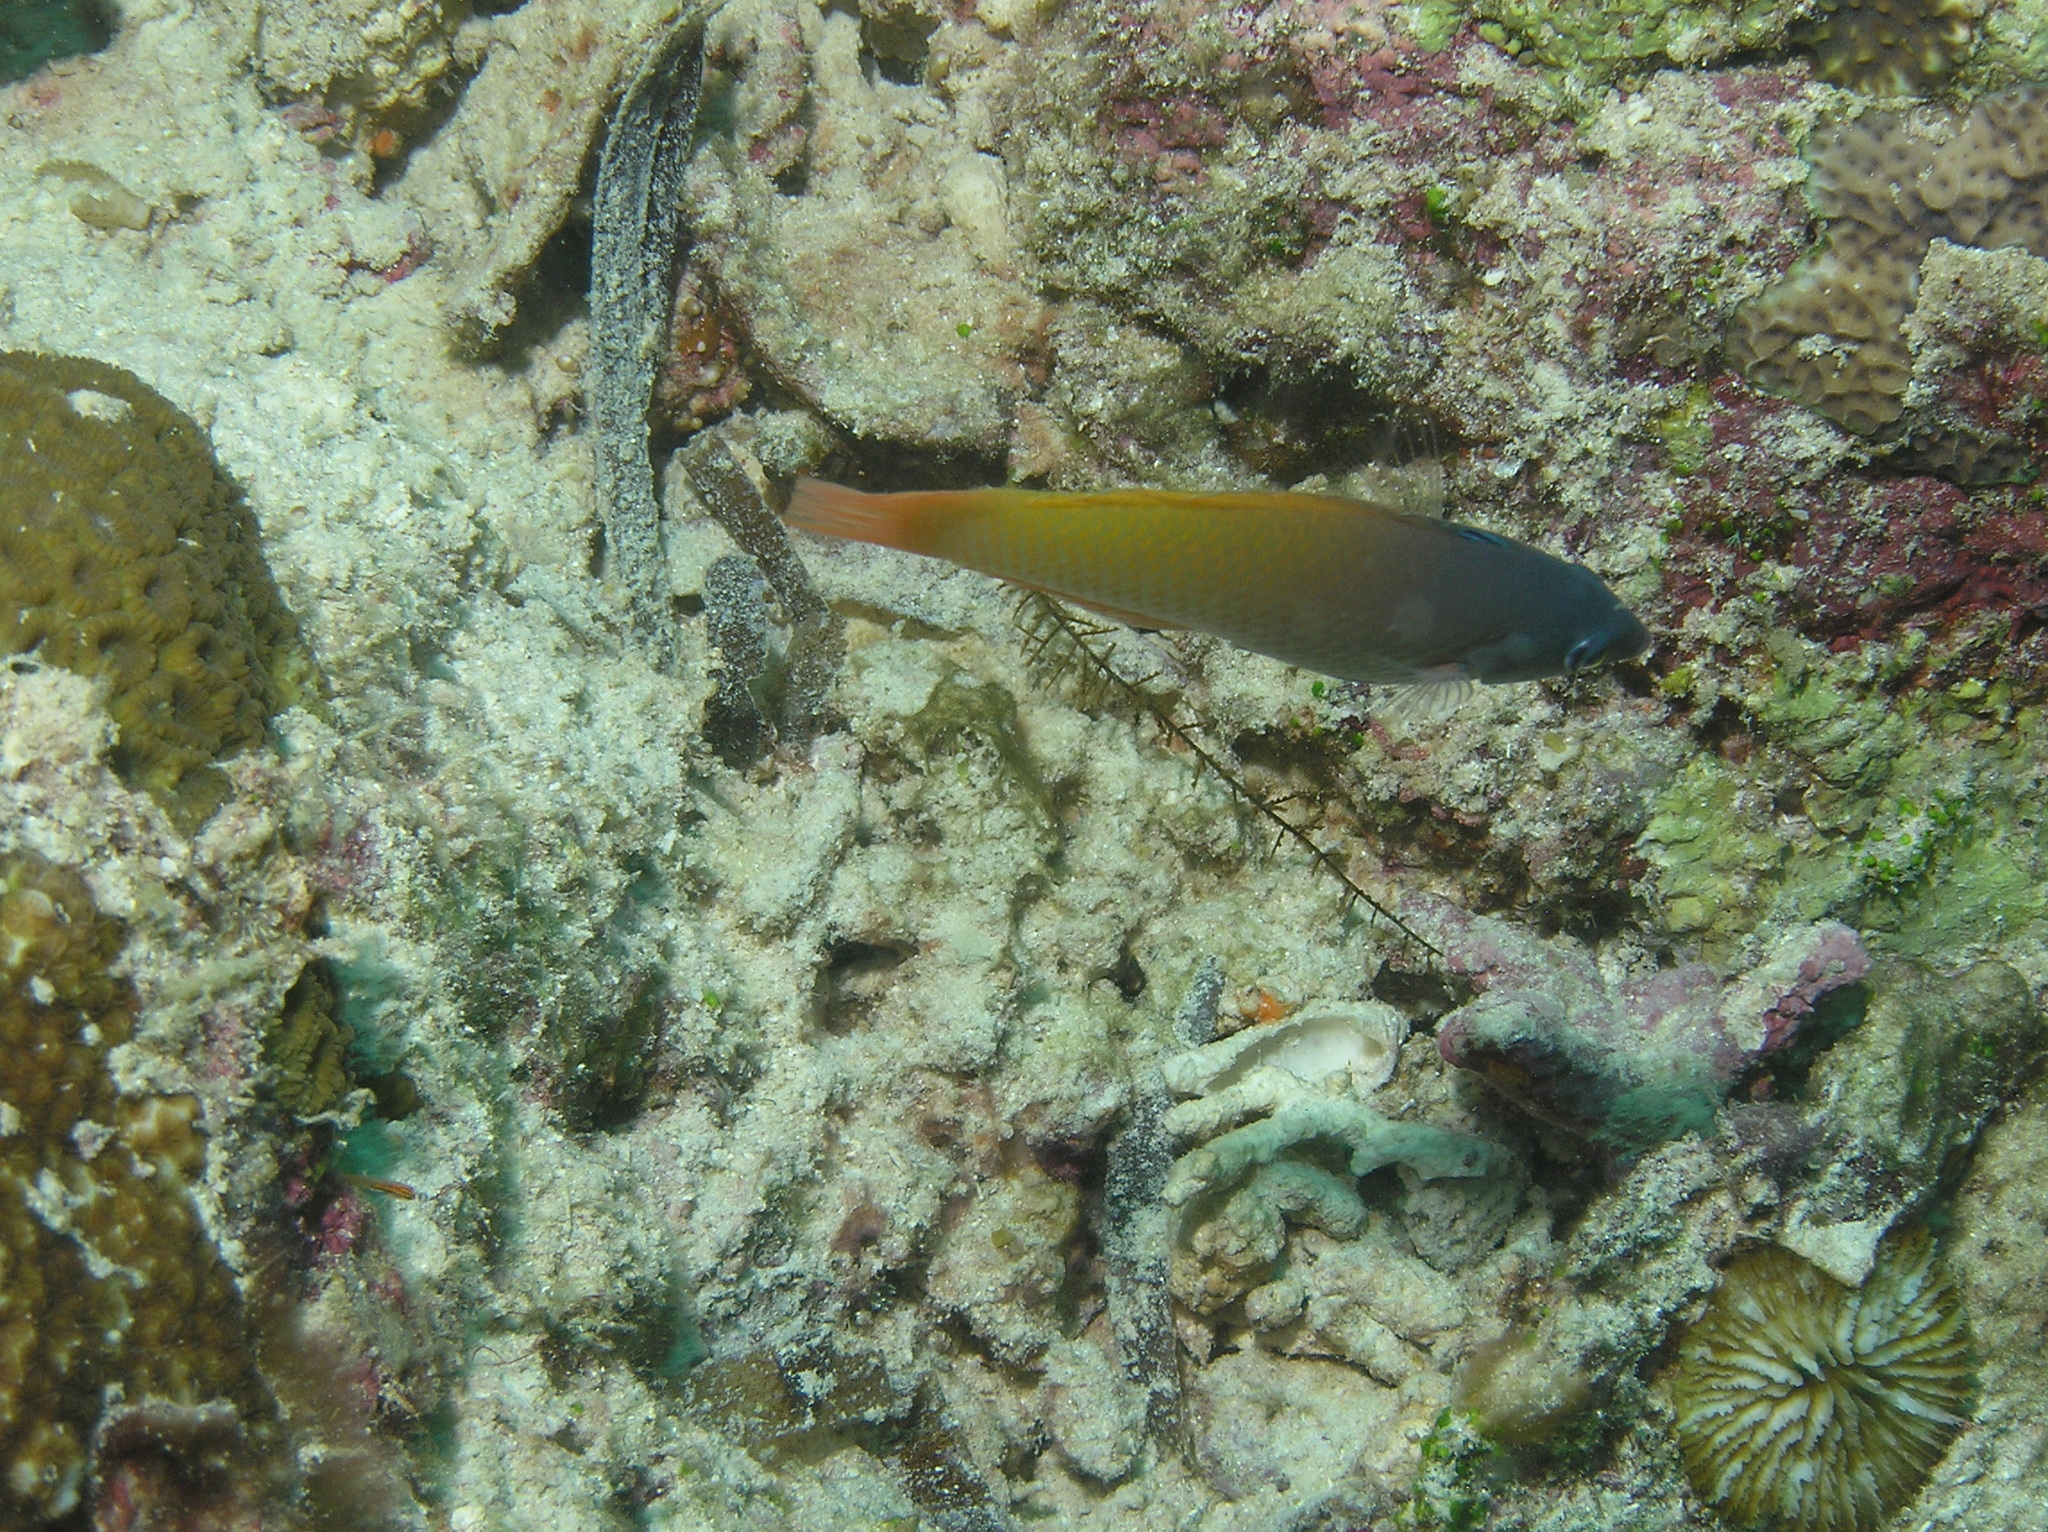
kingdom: Animalia
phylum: Chordata
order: Perciformes
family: Labridae
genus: Halichoeres
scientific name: Halichoeres prosopeion
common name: Half-grey wrasse
